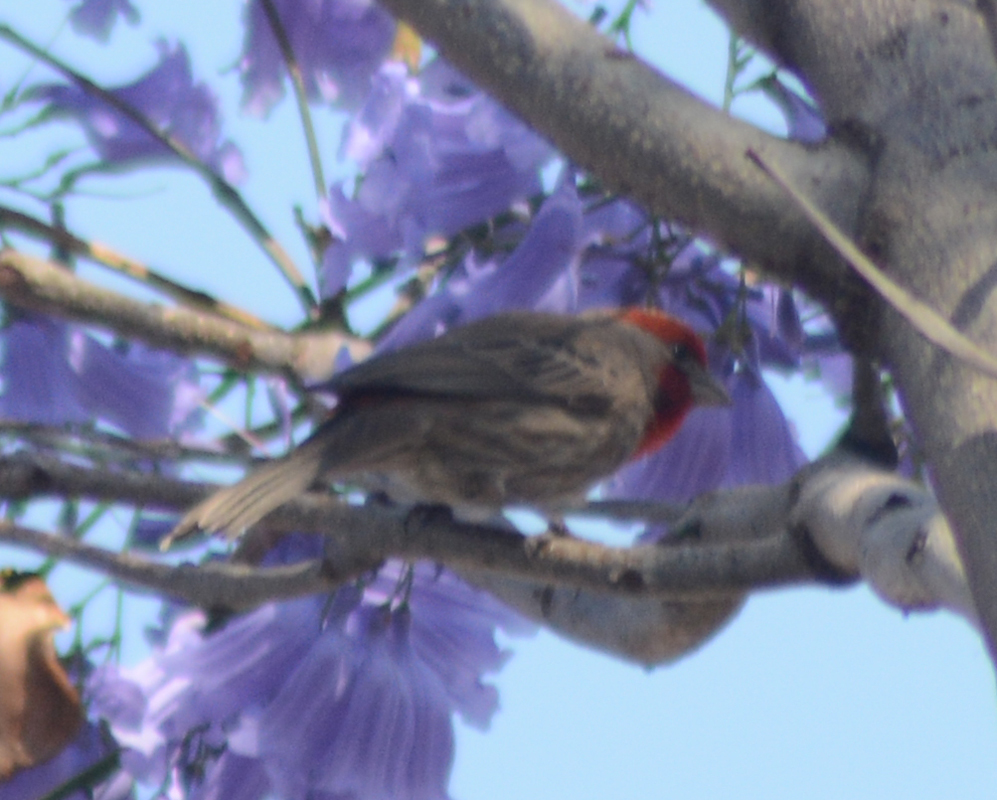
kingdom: Animalia
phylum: Chordata
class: Aves
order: Passeriformes
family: Fringillidae
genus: Haemorhous
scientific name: Haemorhous mexicanus
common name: House finch
